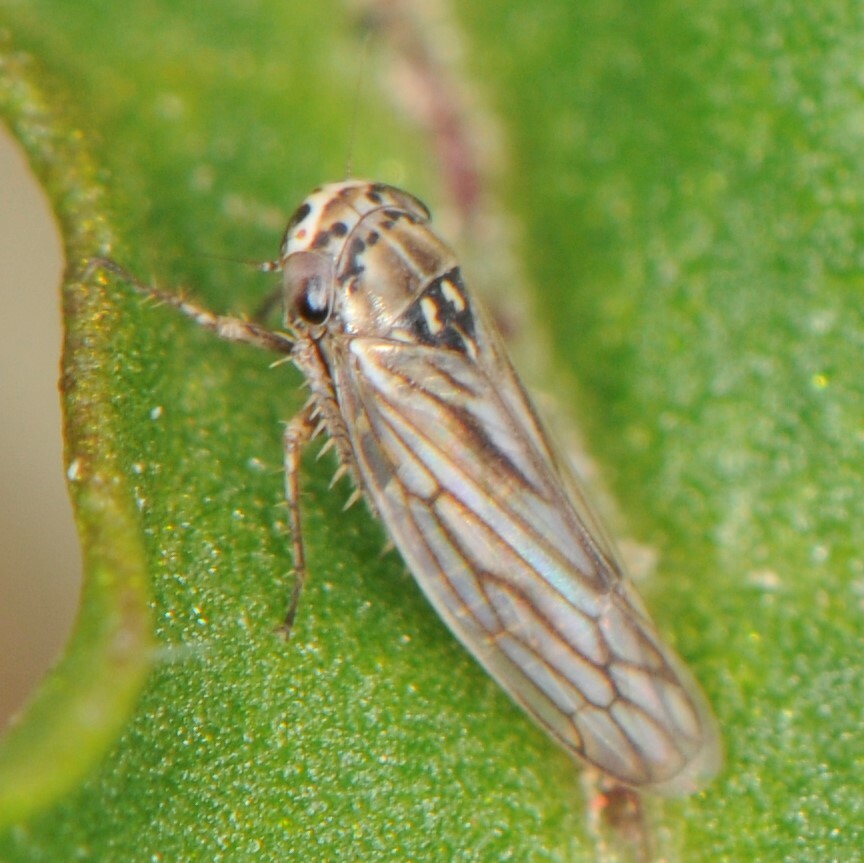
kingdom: Animalia
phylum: Arthropoda
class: Insecta
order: Hemiptera
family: Cicadellidae
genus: Exitianus
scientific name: Exitianus
